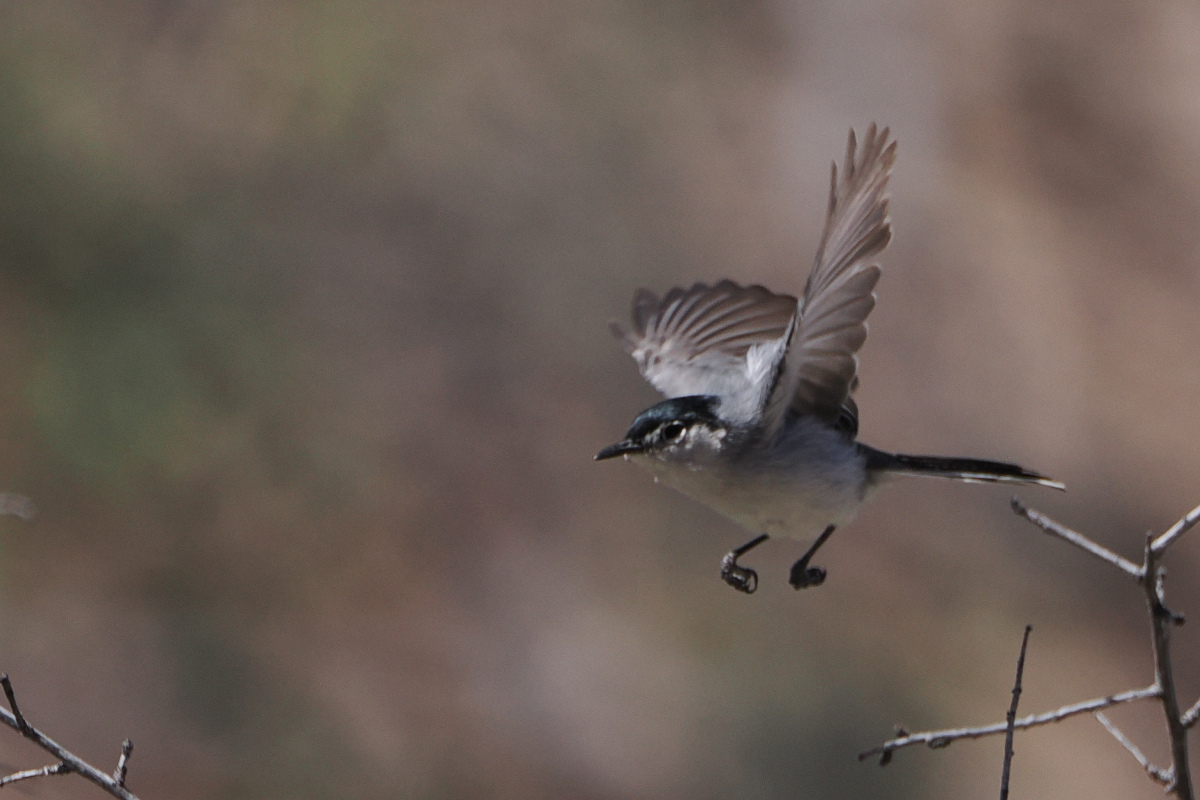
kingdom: Animalia
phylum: Chordata
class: Aves
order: Passeriformes
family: Polioptilidae
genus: Polioptila
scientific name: Polioptila melanura
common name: Black-tailed gnatcatcher
